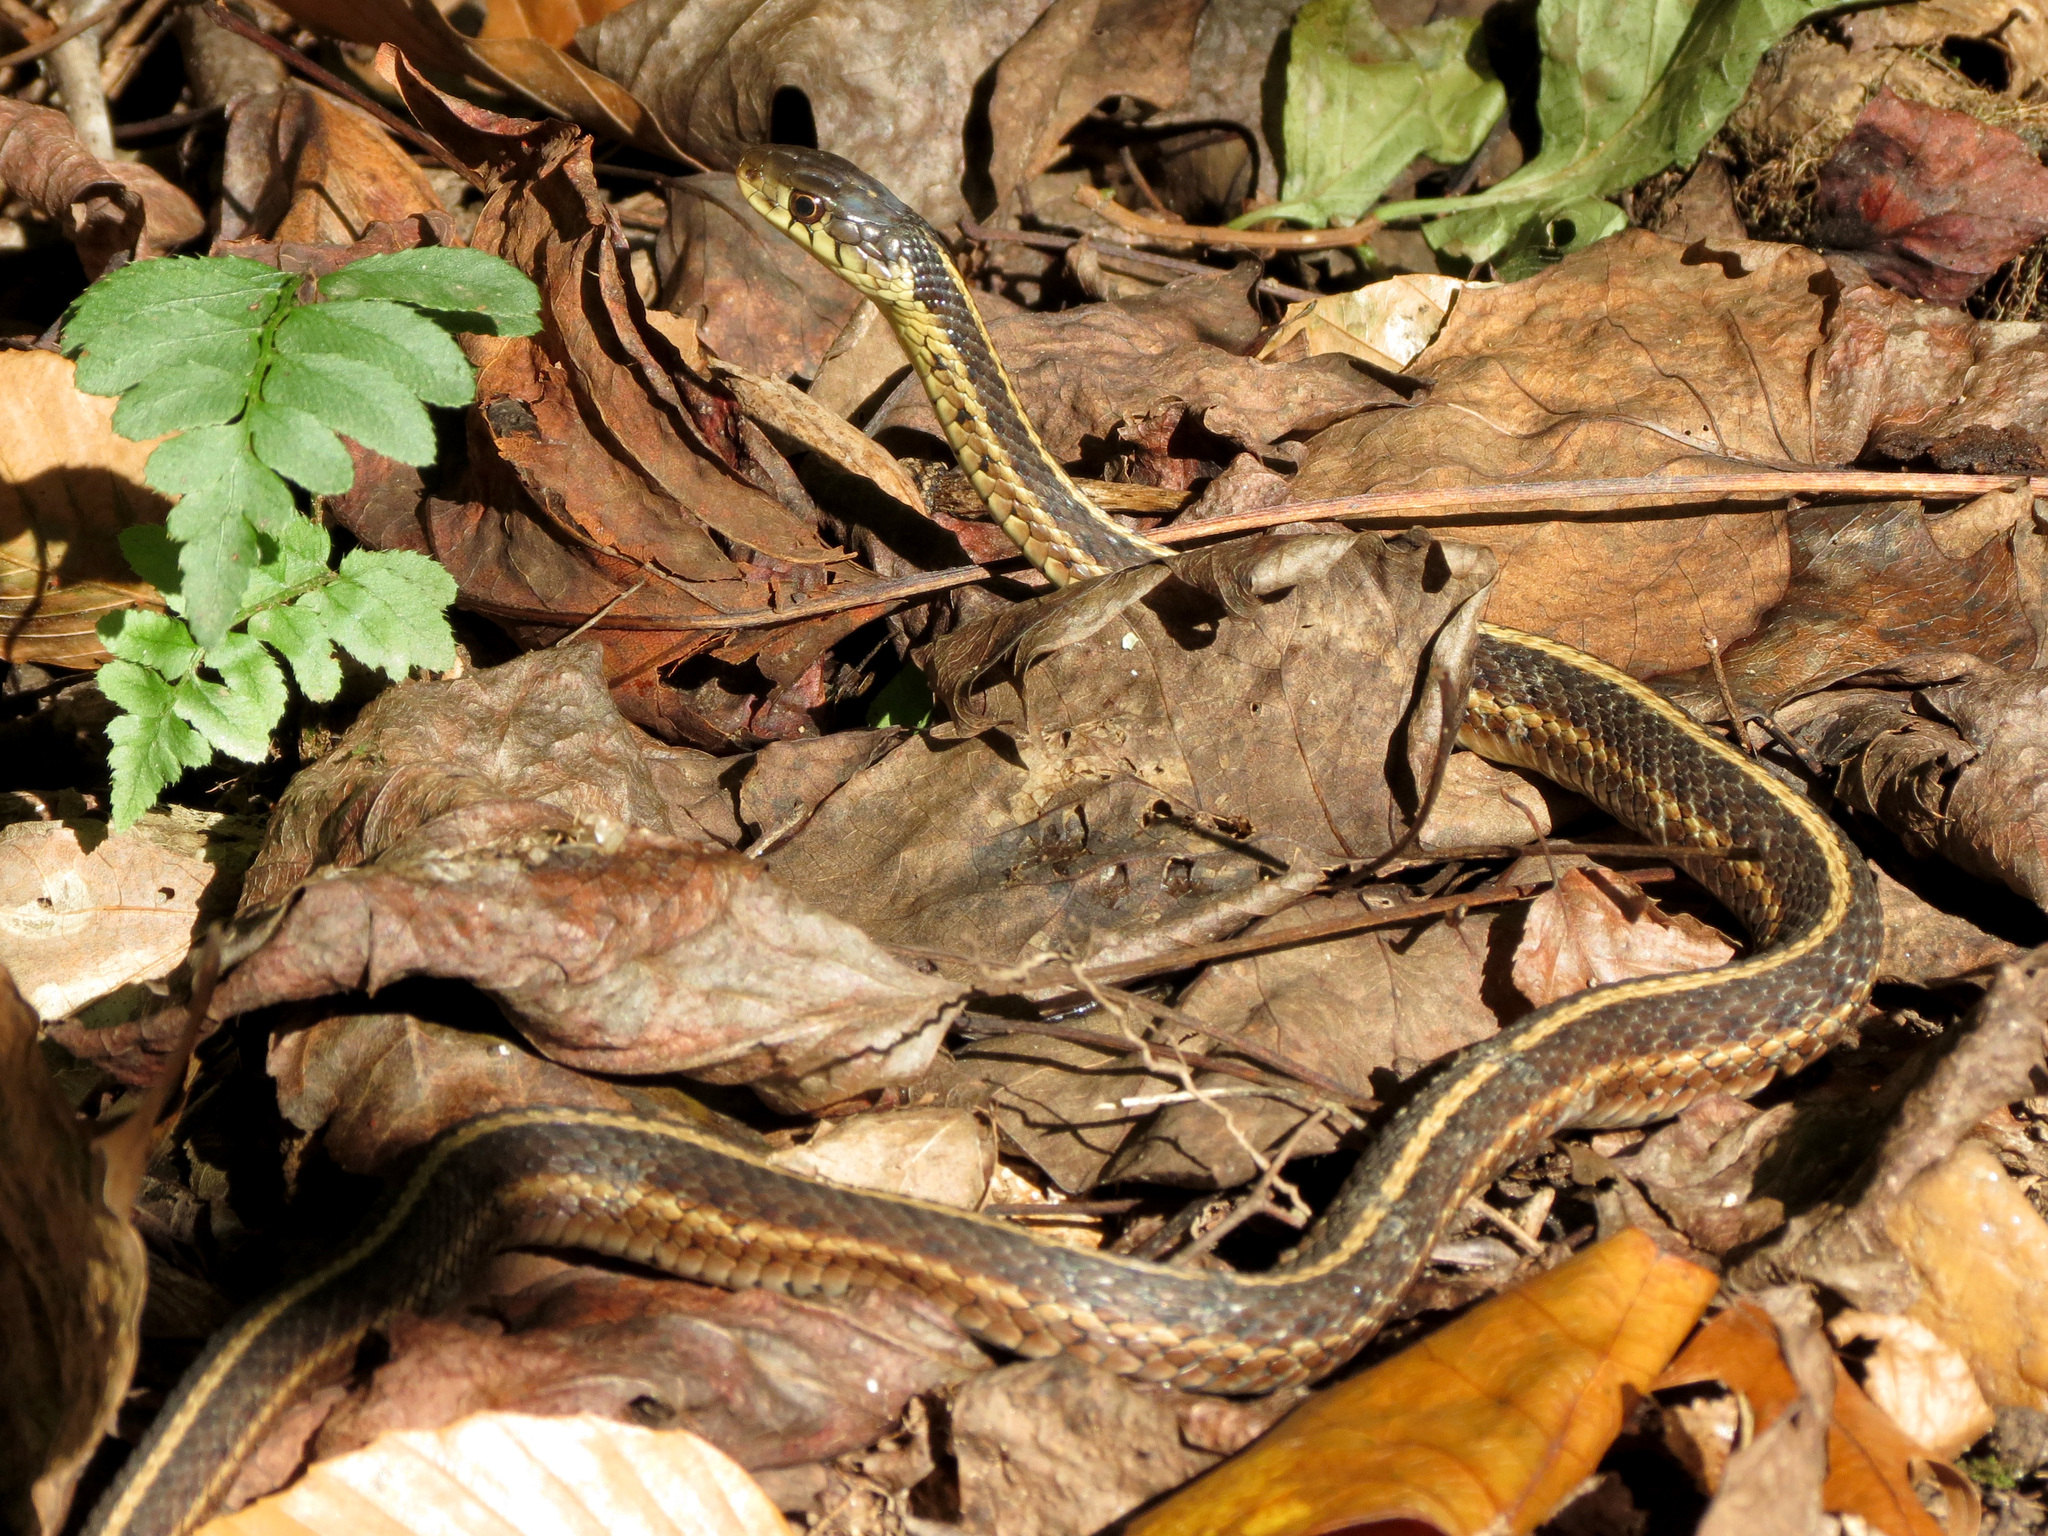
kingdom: Animalia
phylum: Chordata
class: Squamata
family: Colubridae
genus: Thamnophis
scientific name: Thamnophis sirtalis
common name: Common garter snake
